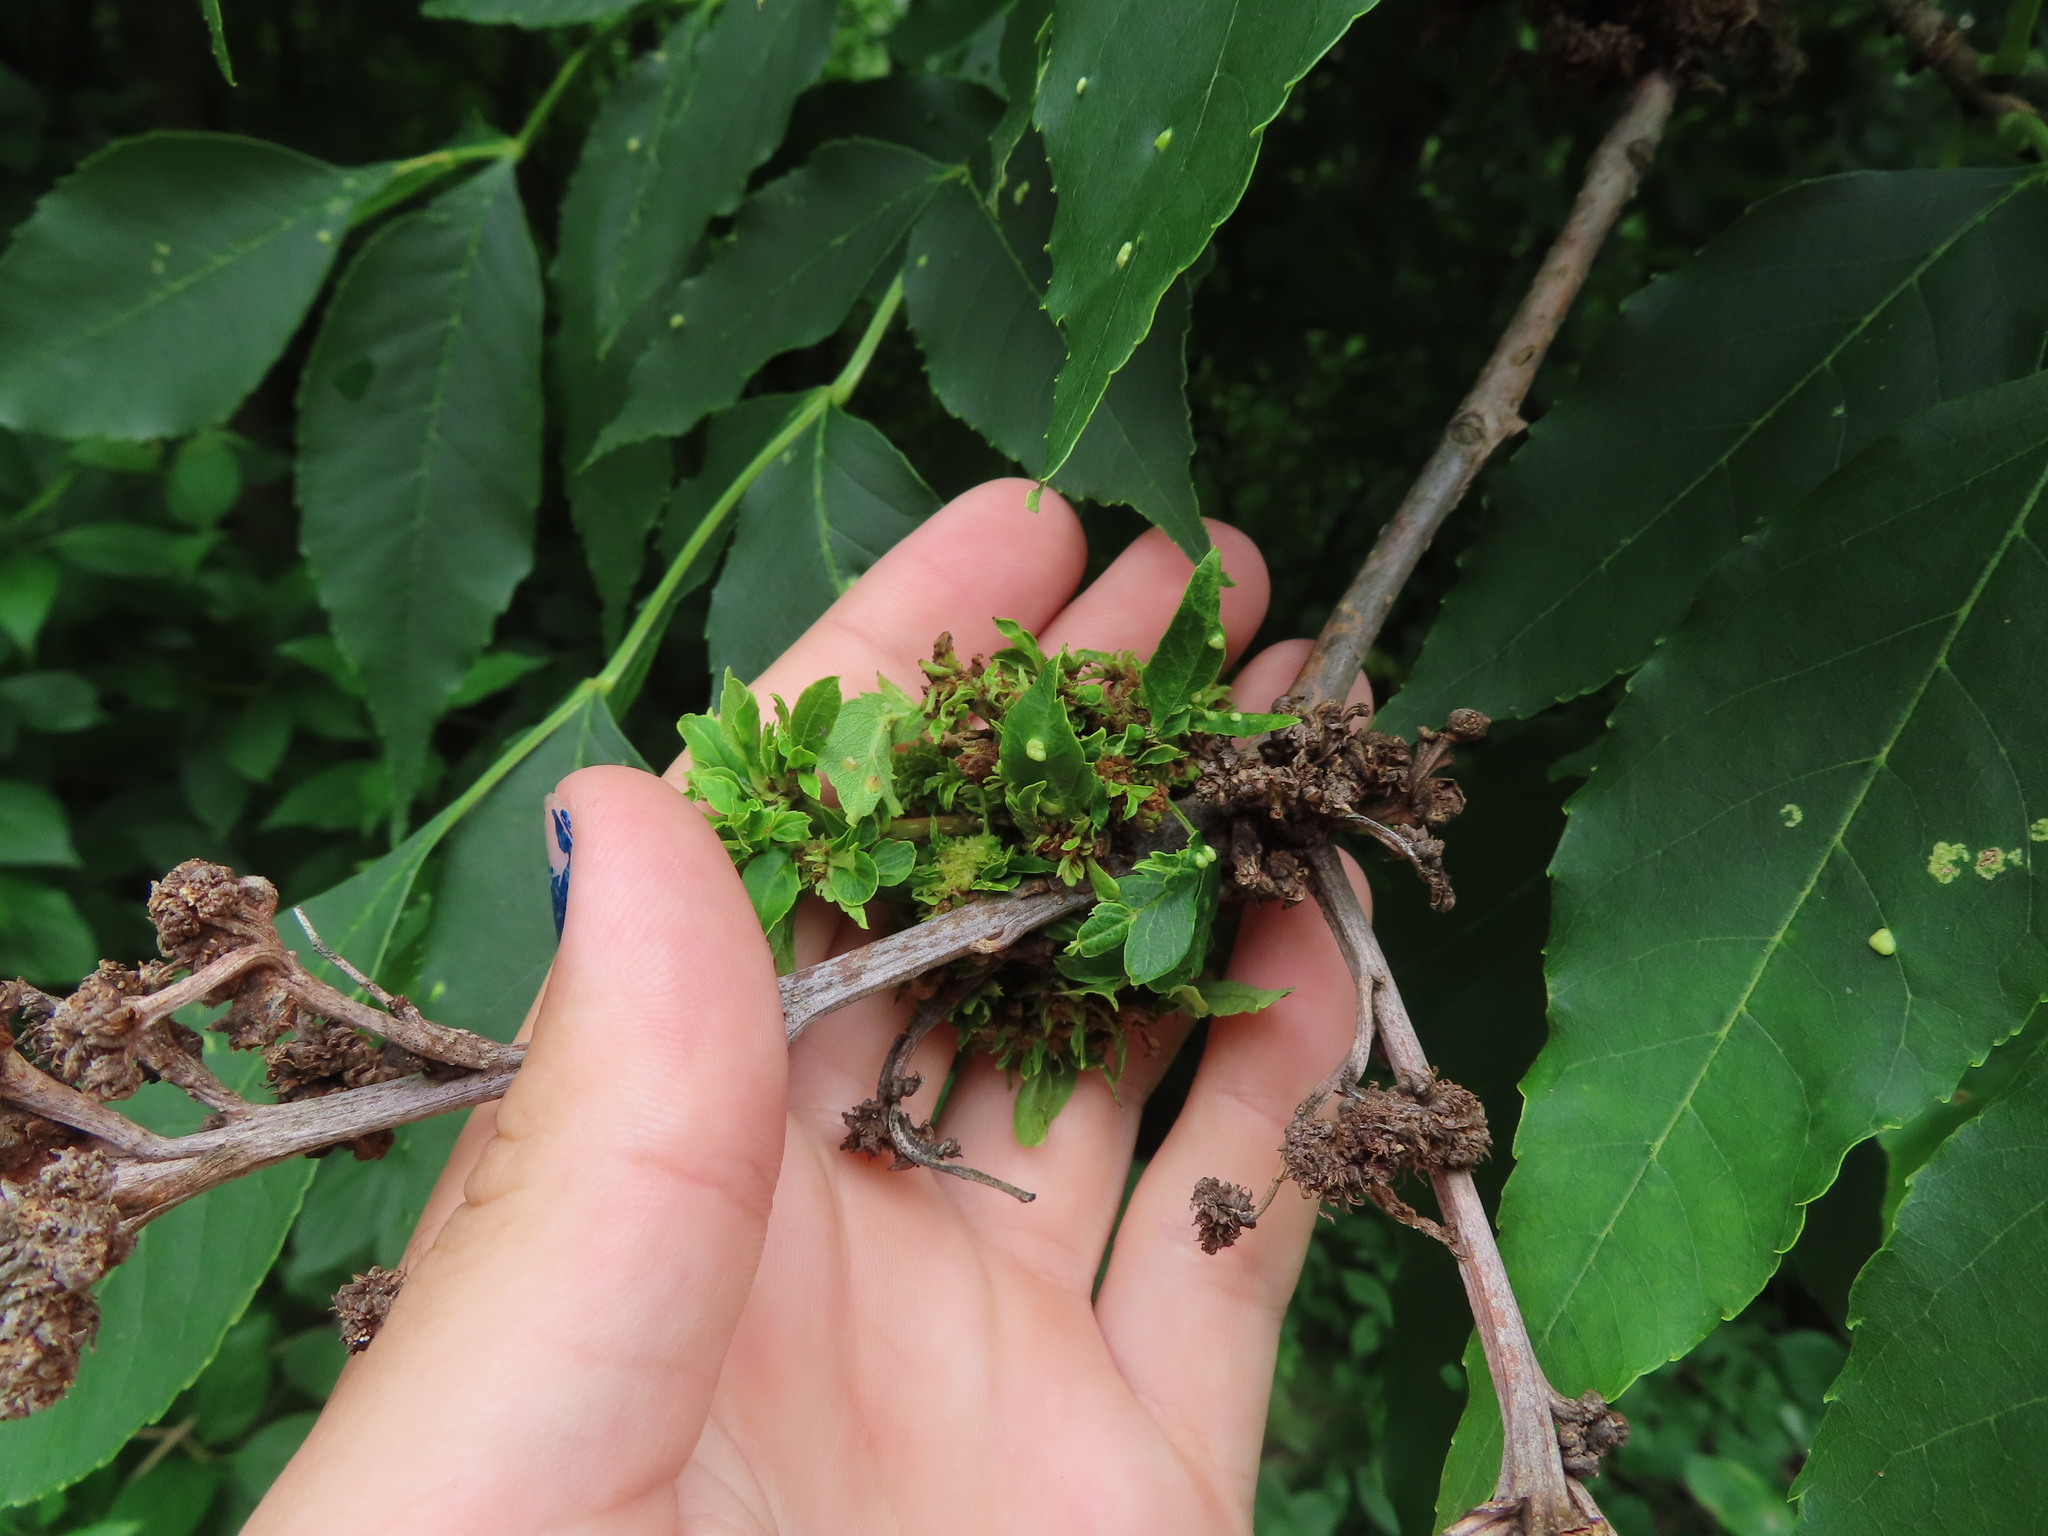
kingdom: Animalia
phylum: Arthropoda
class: Arachnida
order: Trombidiformes
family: Eriophyidae
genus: Aceria
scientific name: Aceria fraxiniflora
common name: Ash flower gall mite
